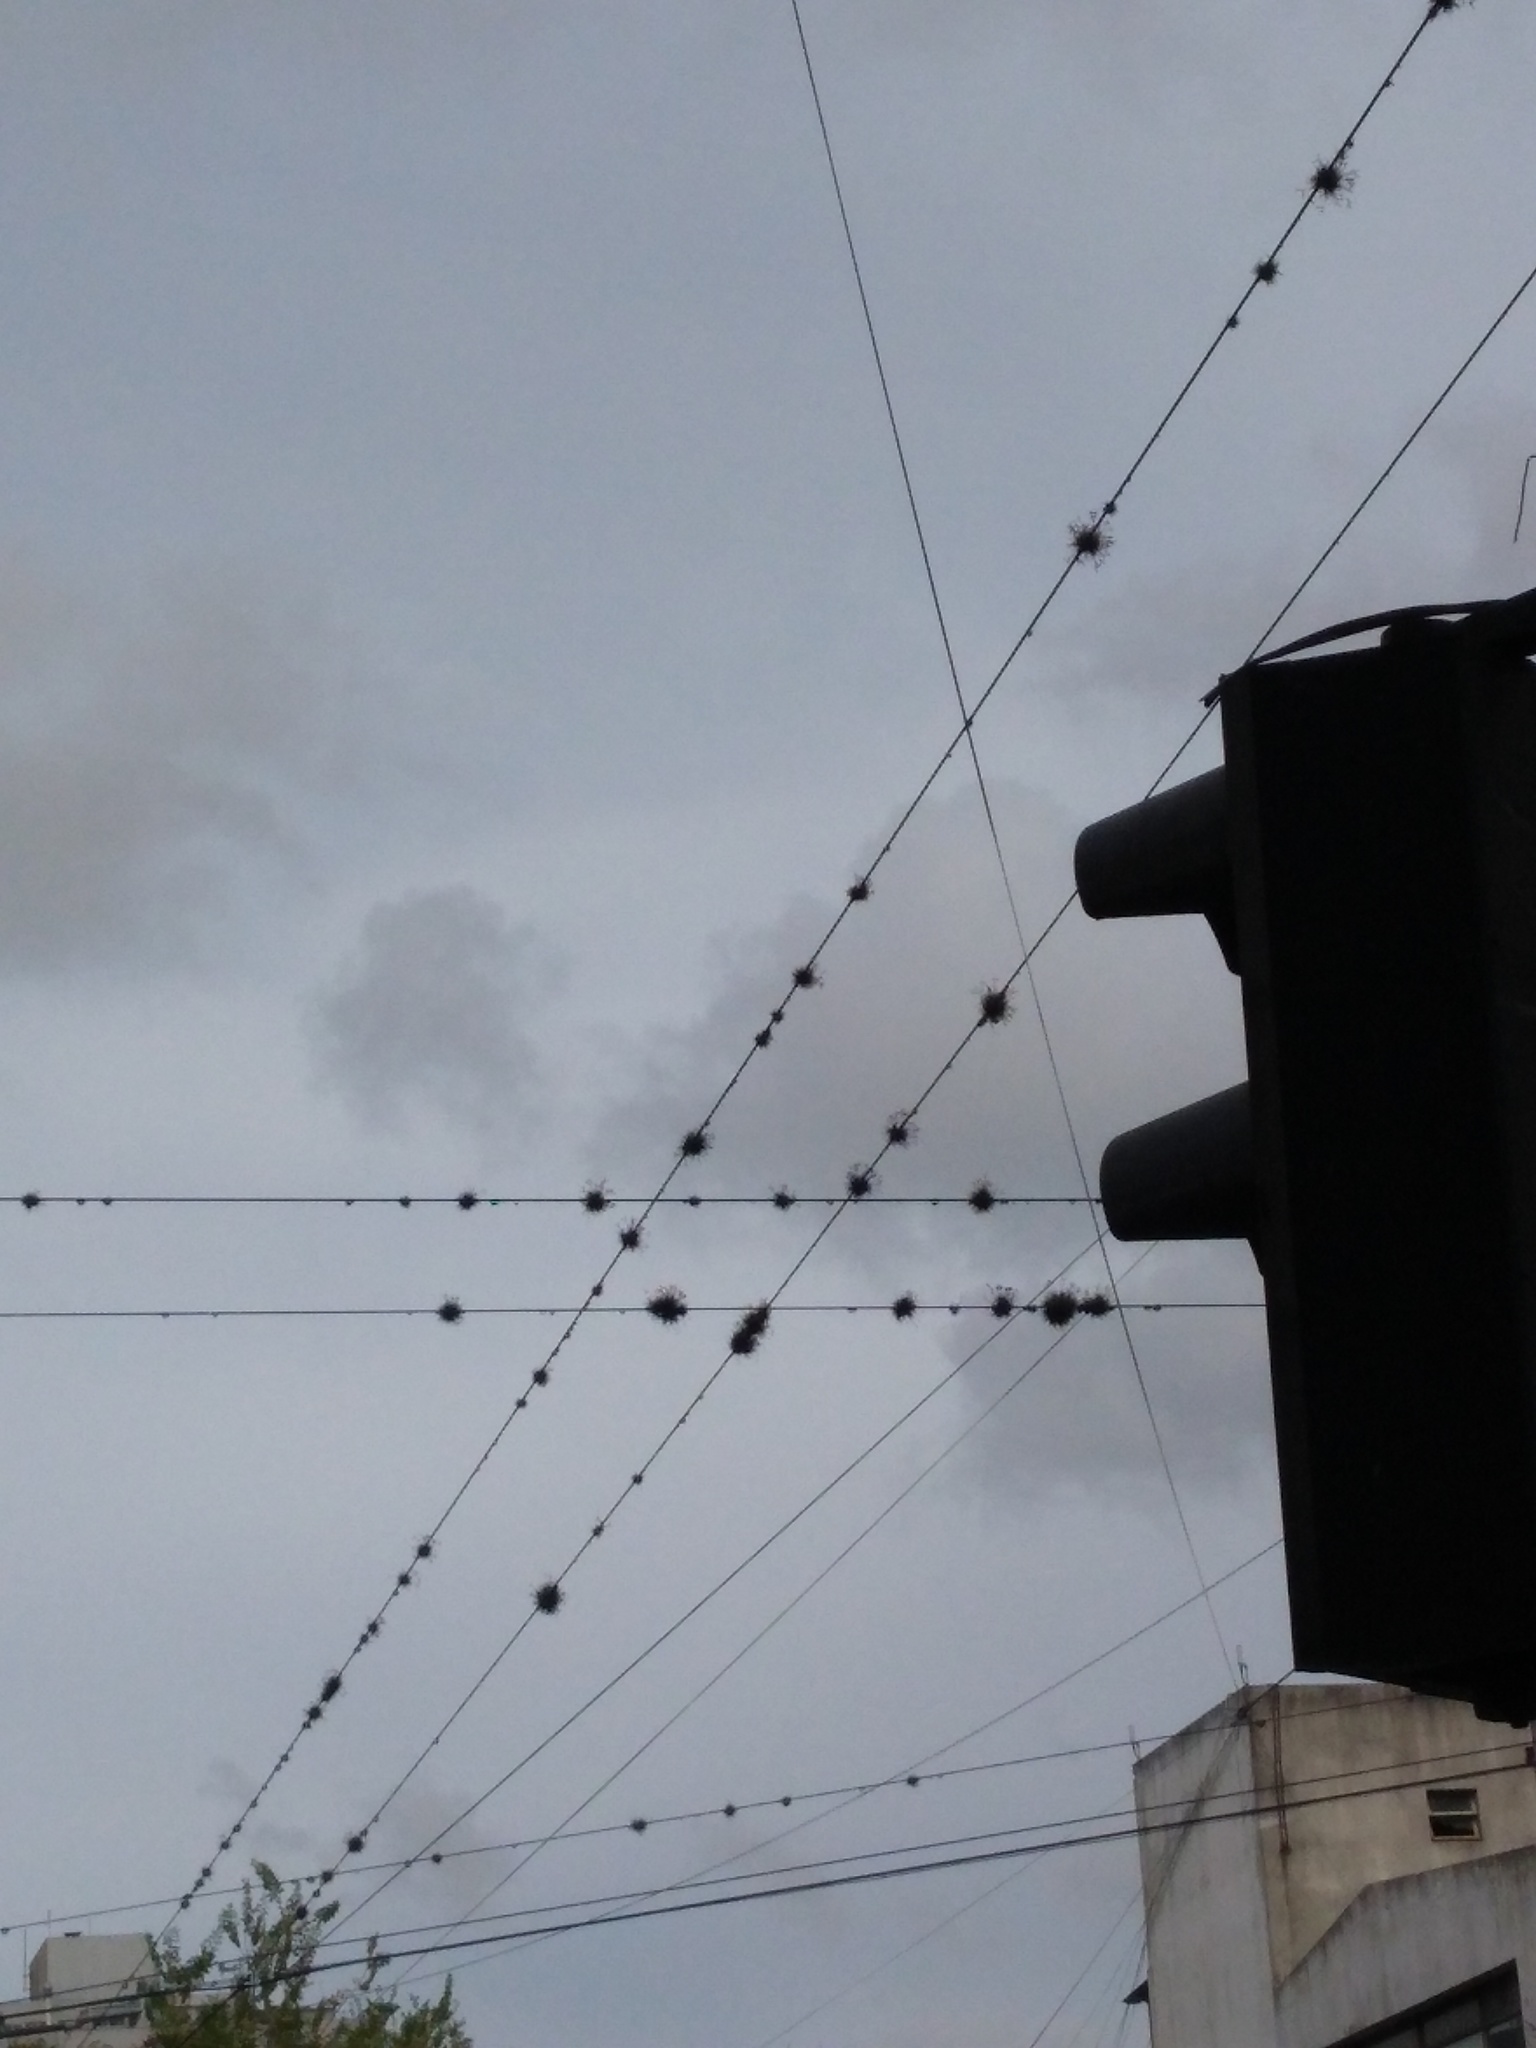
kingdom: Plantae
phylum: Tracheophyta
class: Liliopsida
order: Poales
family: Bromeliaceae
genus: Tillandsia
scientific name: Tillandsia recurvata
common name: Small ballmoss
